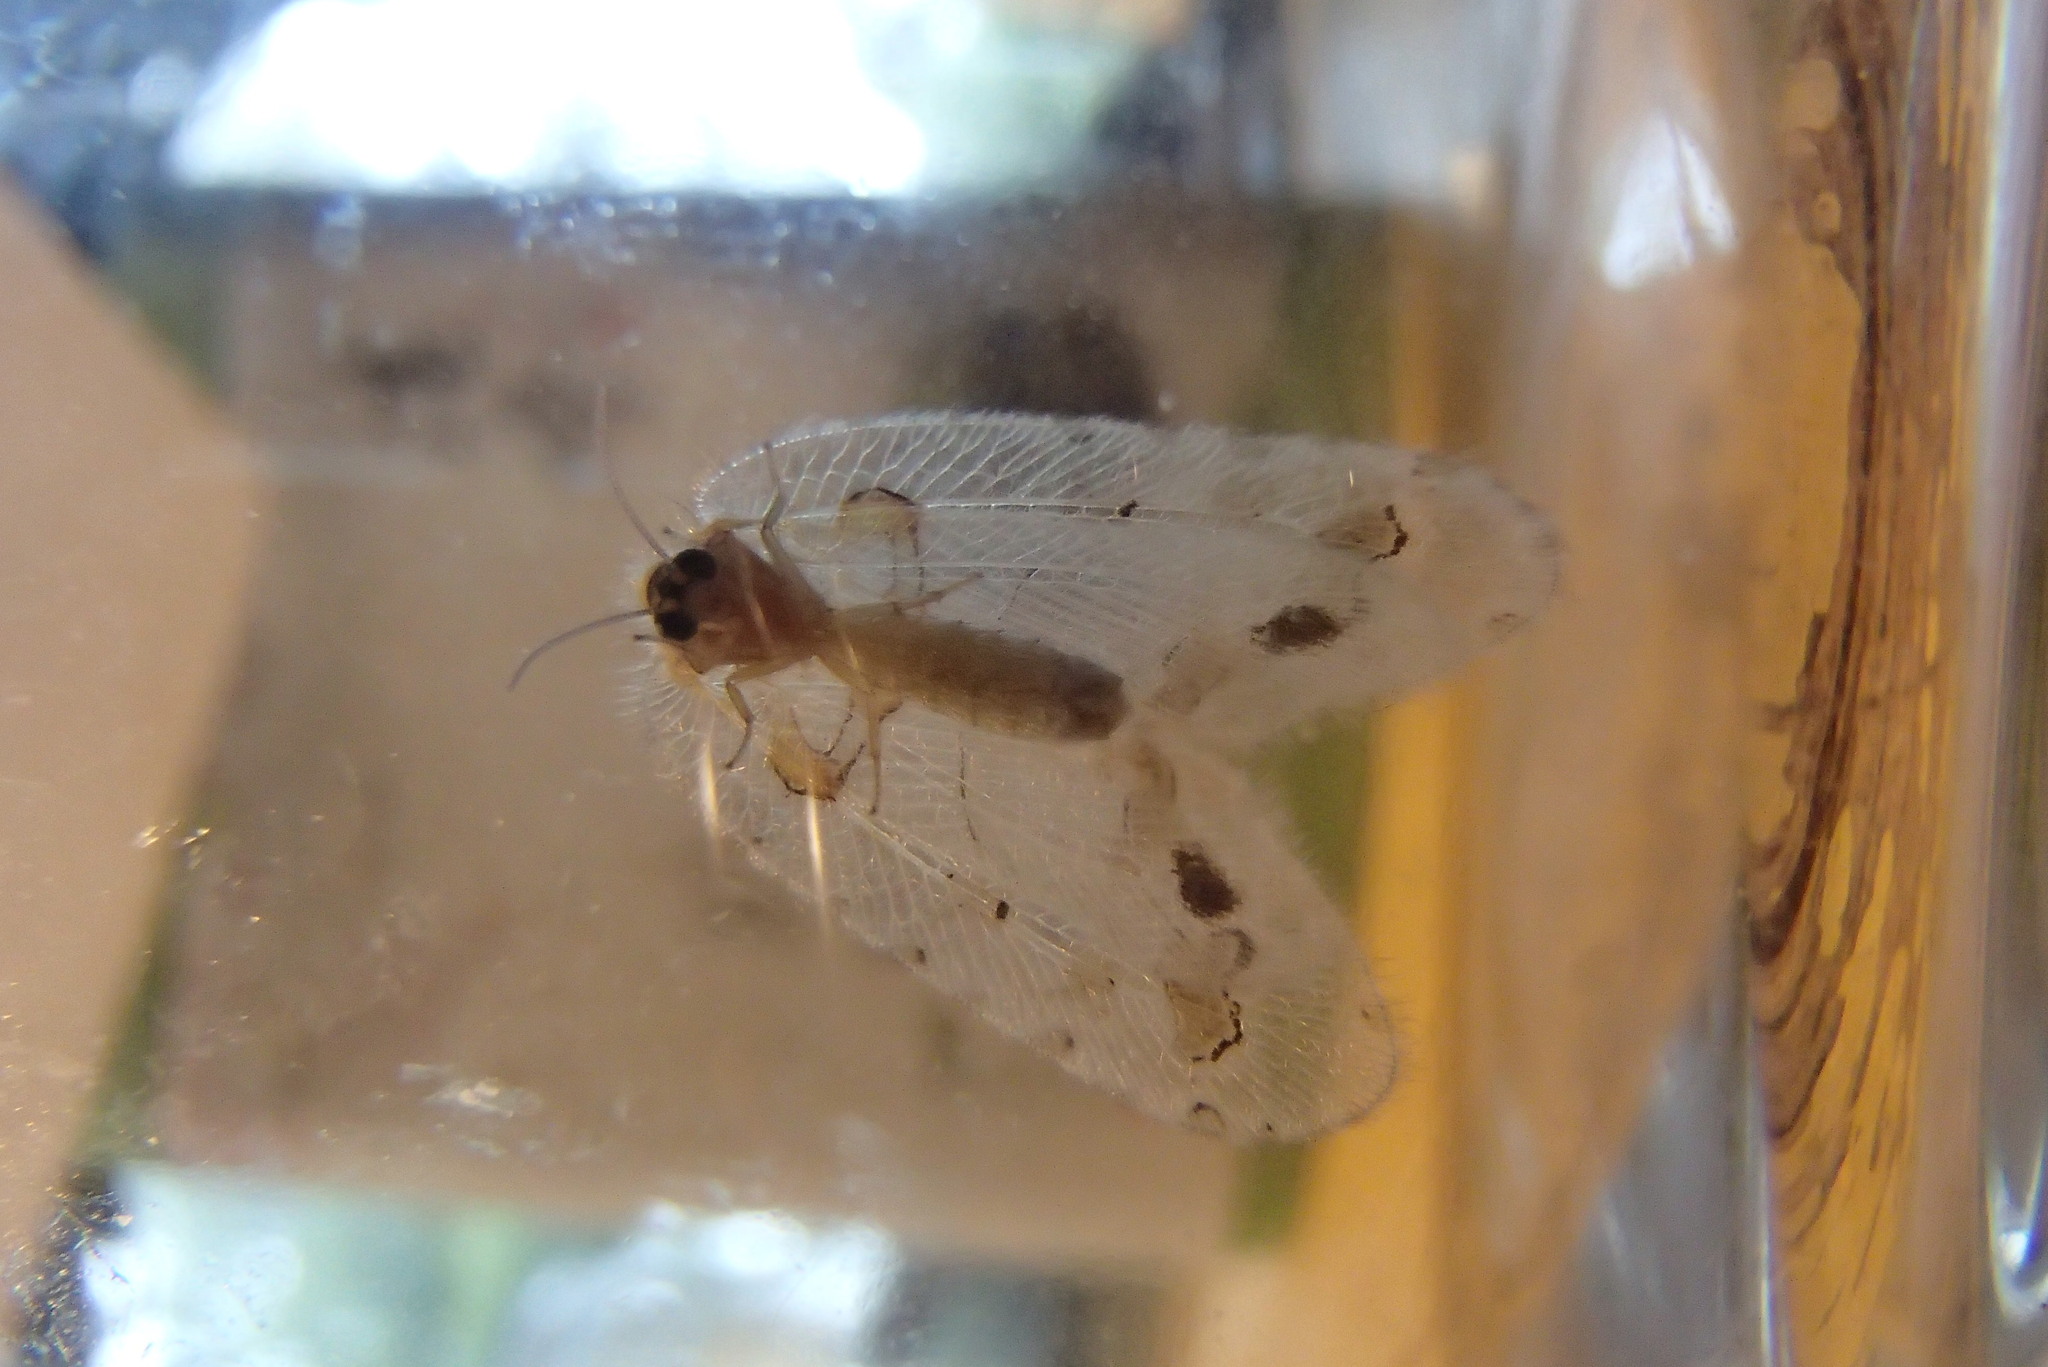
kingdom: Animalia
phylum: Arthropoda
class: Insecta
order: Neuroptera
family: Psychopsidae
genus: Psychopsis
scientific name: Psychopsis margarita
